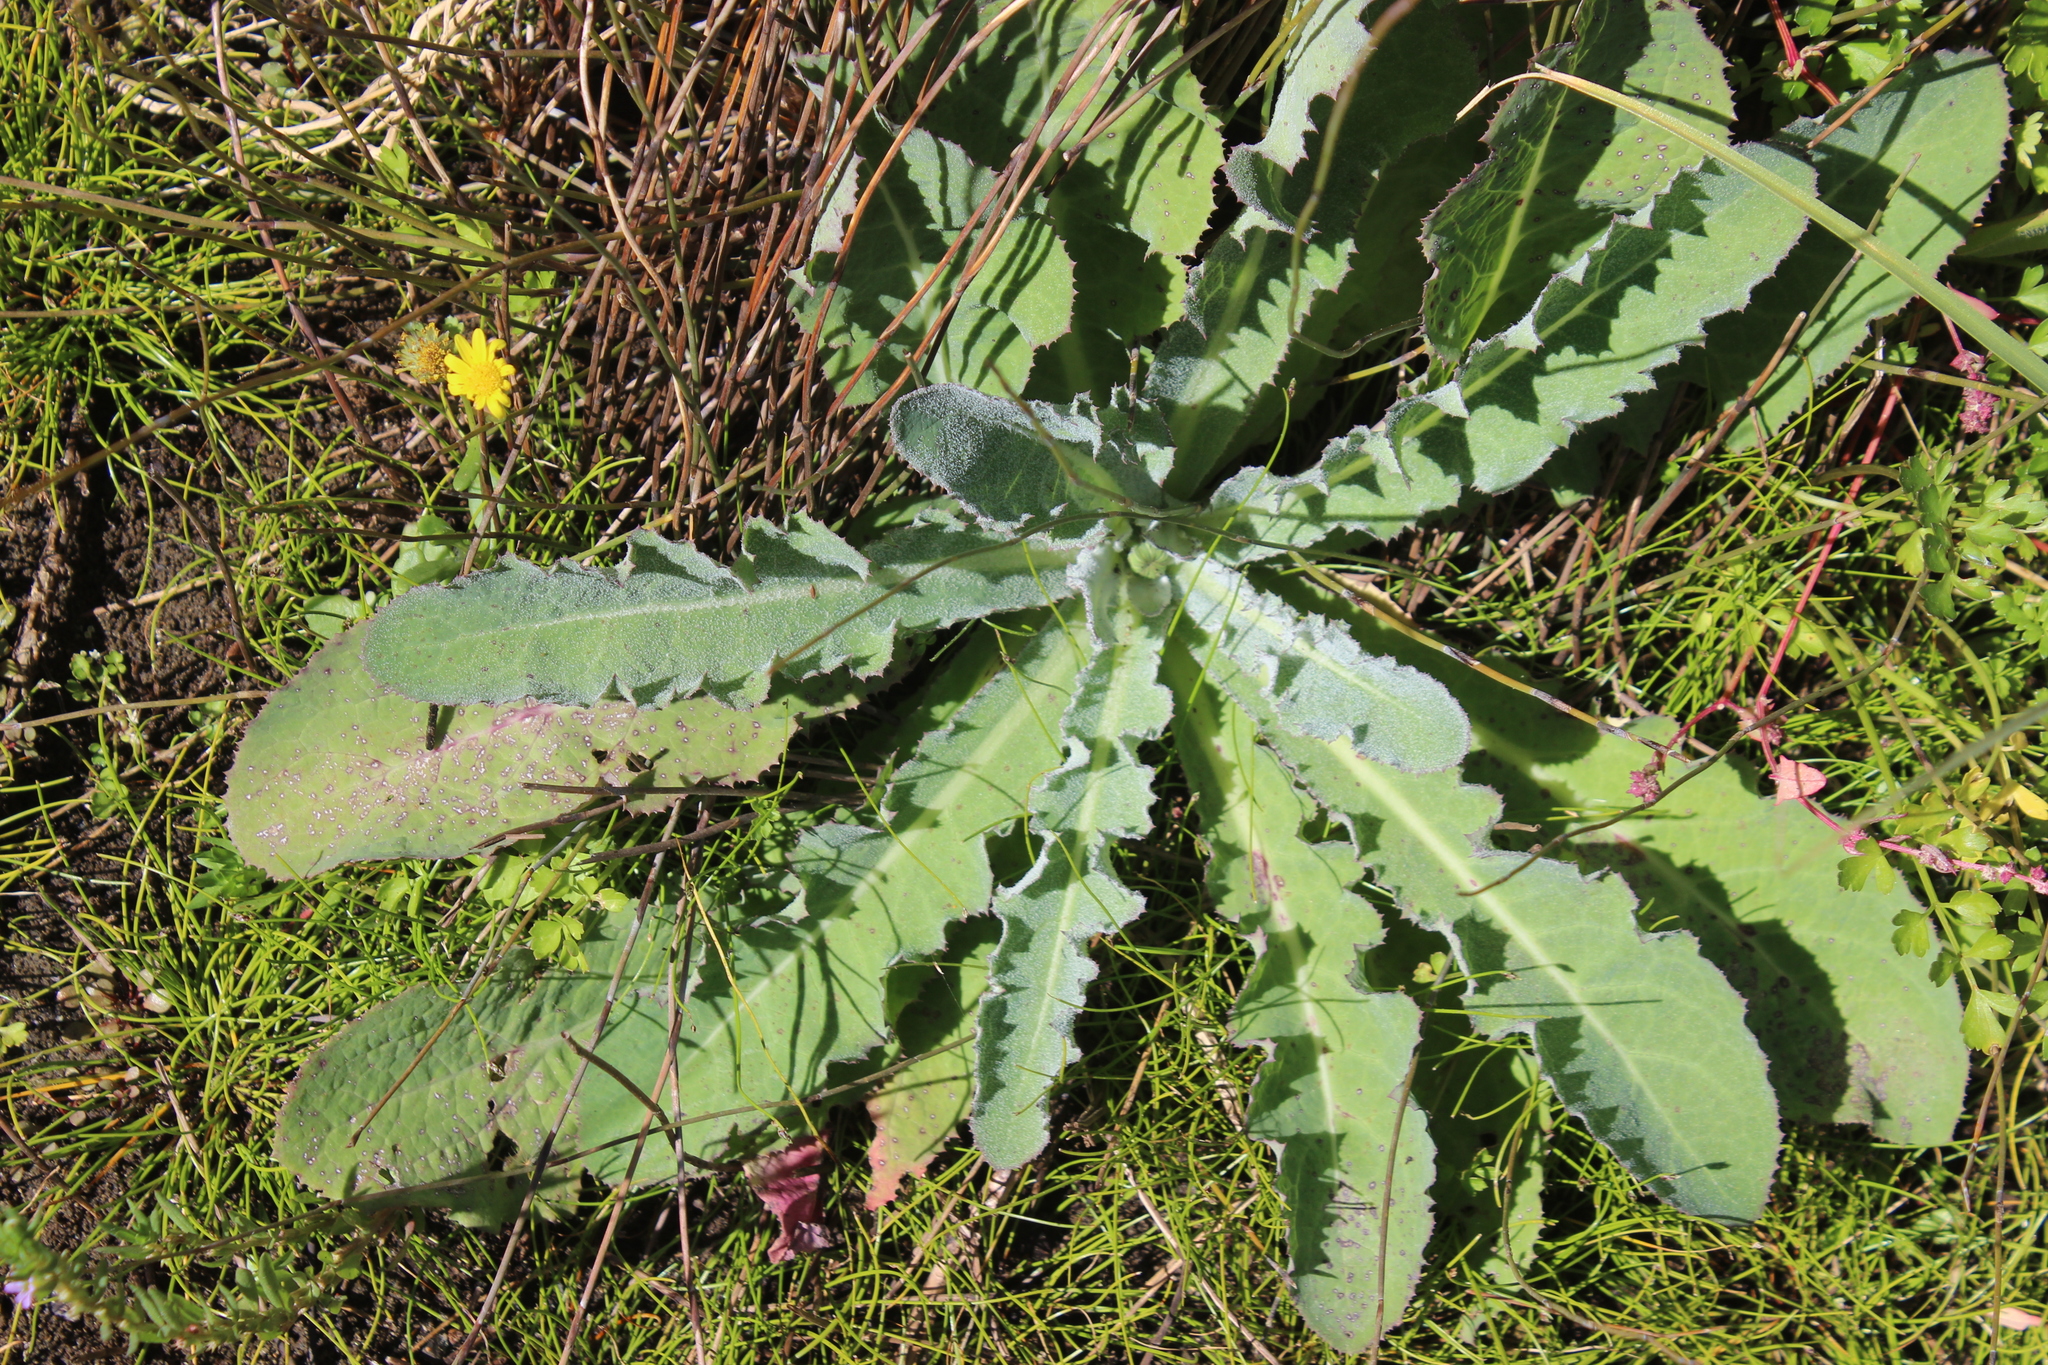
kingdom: Plantae
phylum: Tracheophyta
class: Magnoliopsida
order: Asterales
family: Asteraceae
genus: Sonchus
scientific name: Sonchus kirkii
